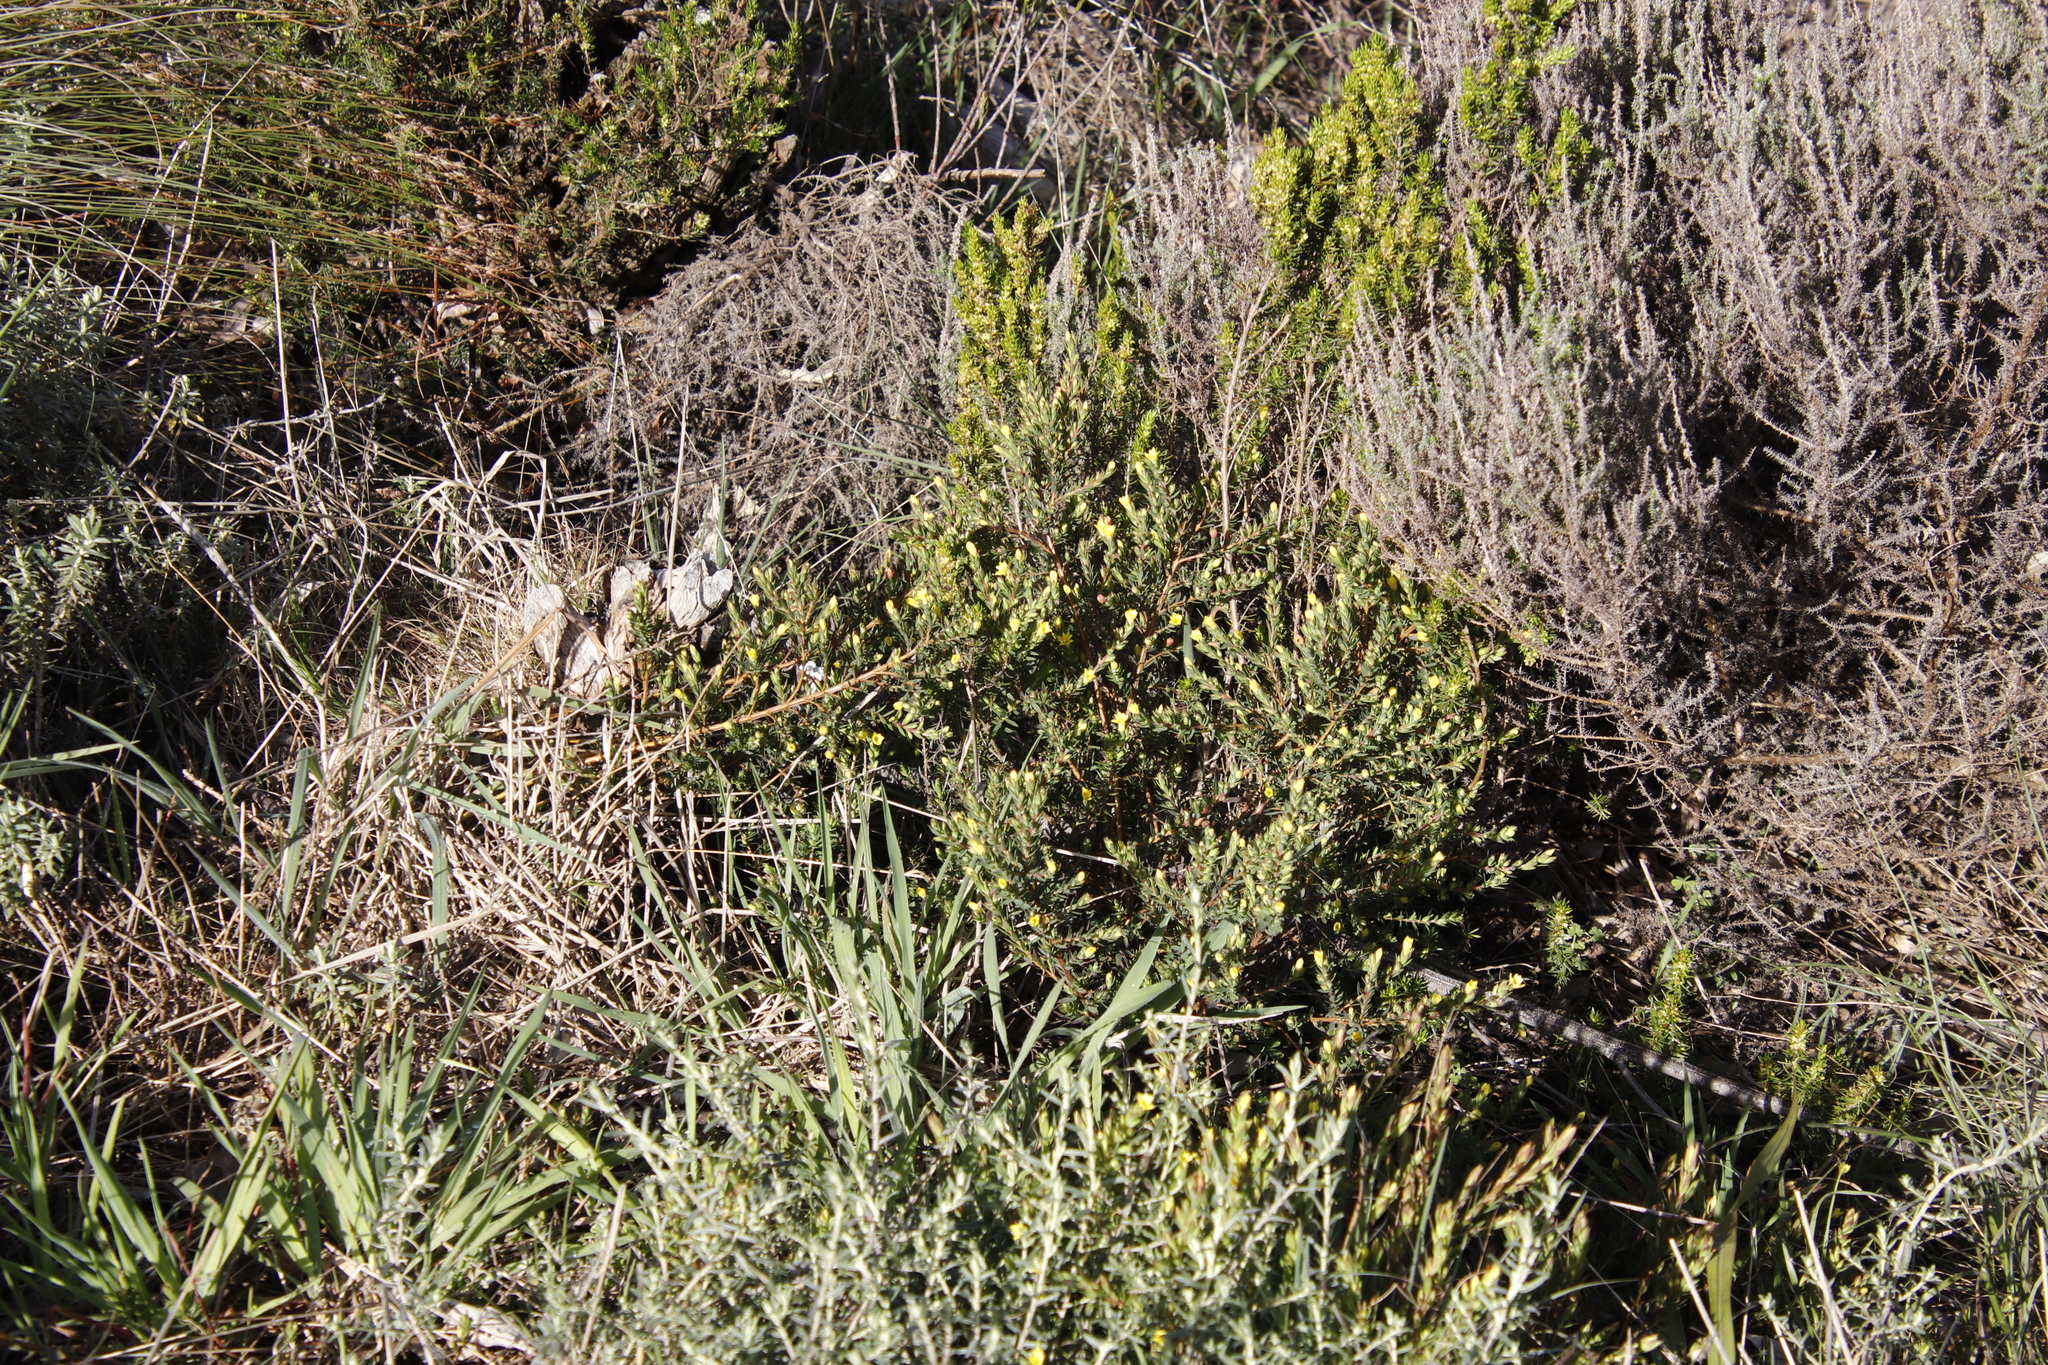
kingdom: Plantae
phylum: Tracheophyta
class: Magnoliopsida
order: Malvales
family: Thymelaeaceae
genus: Gnidia
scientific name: Gnidia juniperifolia
